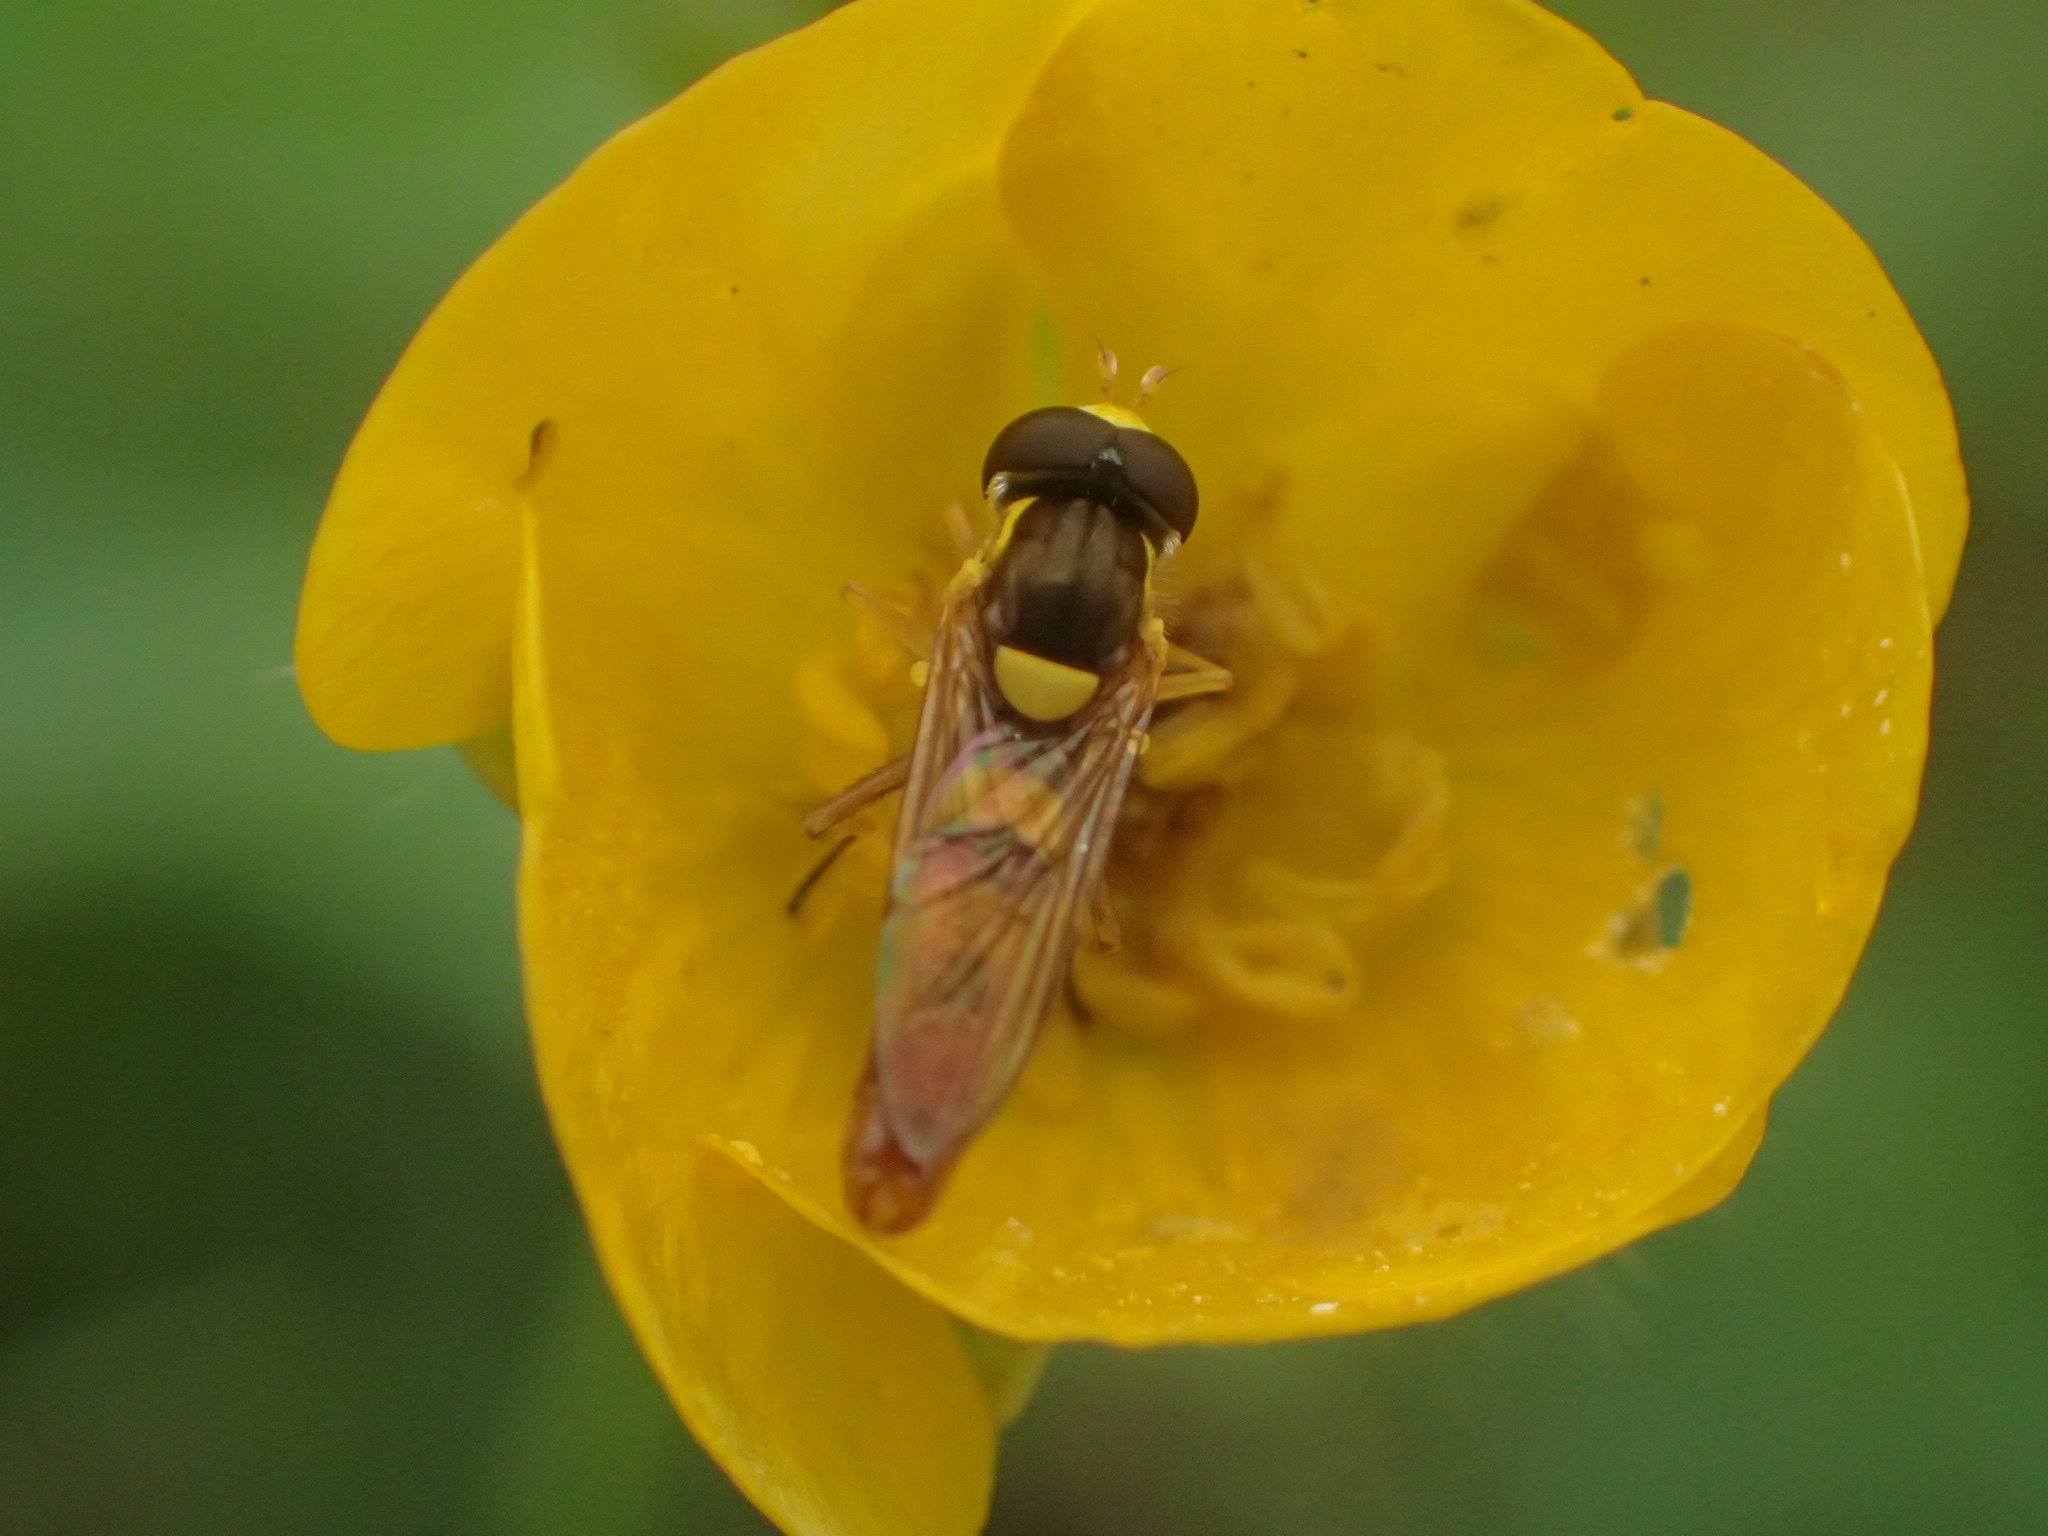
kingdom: Animalia
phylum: Arthropoda
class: Insecta
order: Diptera
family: Syrphidae
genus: Sphaerophoria
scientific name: Sphaerophoria contigua
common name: Tufted globetail
